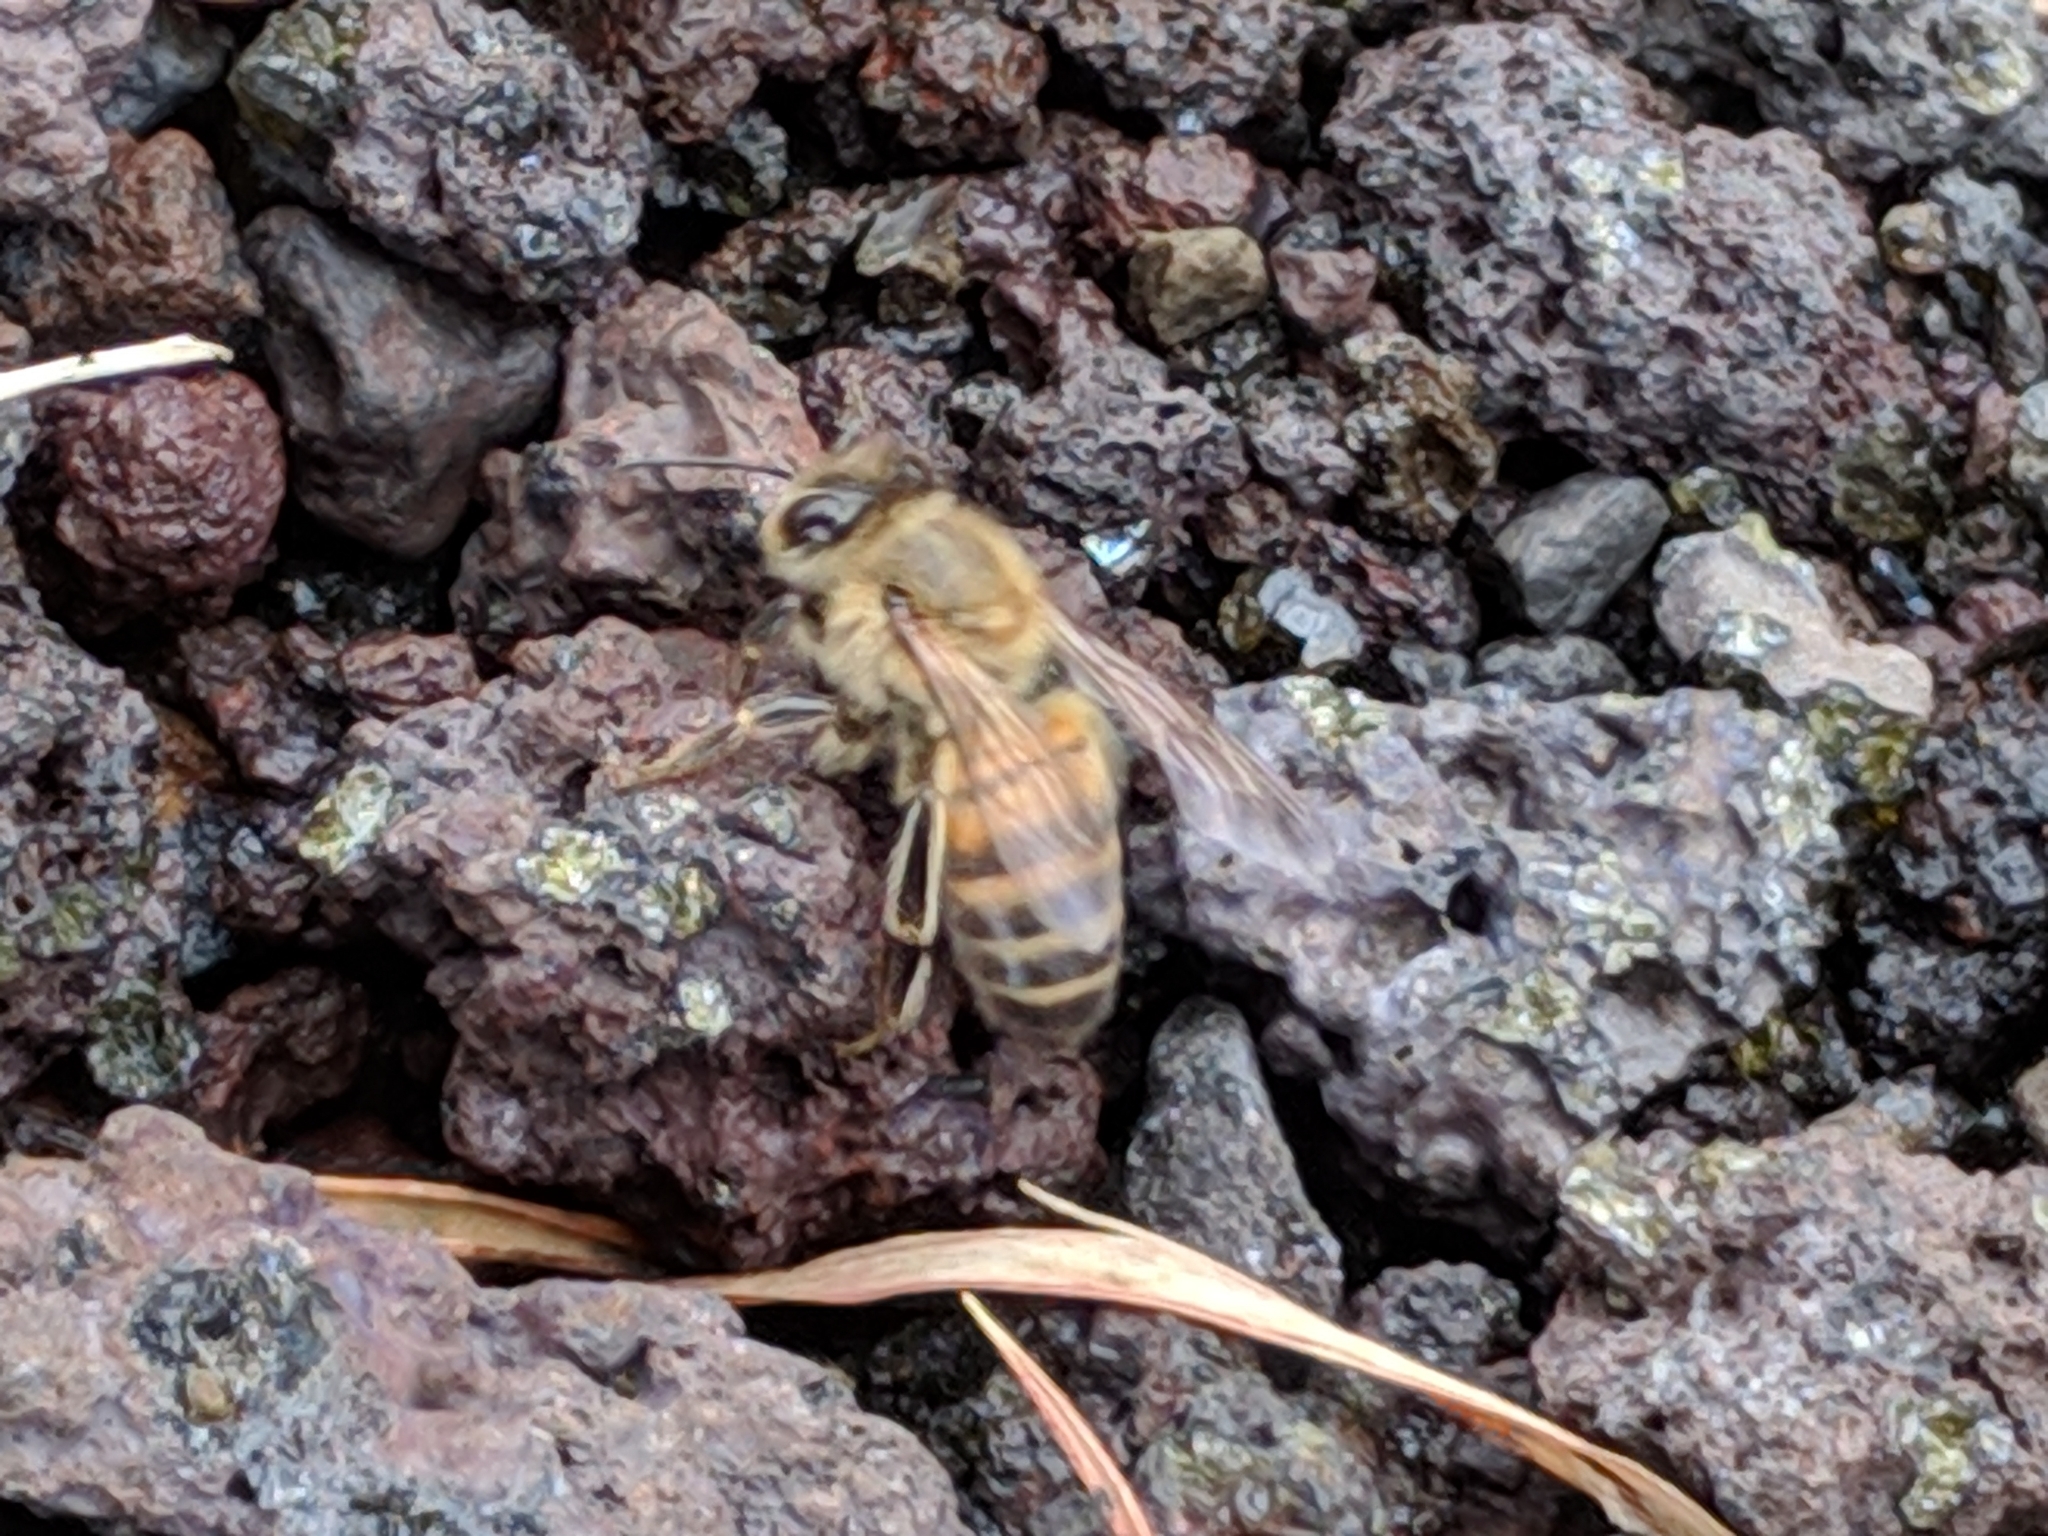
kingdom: Animalia
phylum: Arthropoda
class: Insecta
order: Hymenoptera
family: Apidae
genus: Apis
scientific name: Apis mellifera
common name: Honey bee
